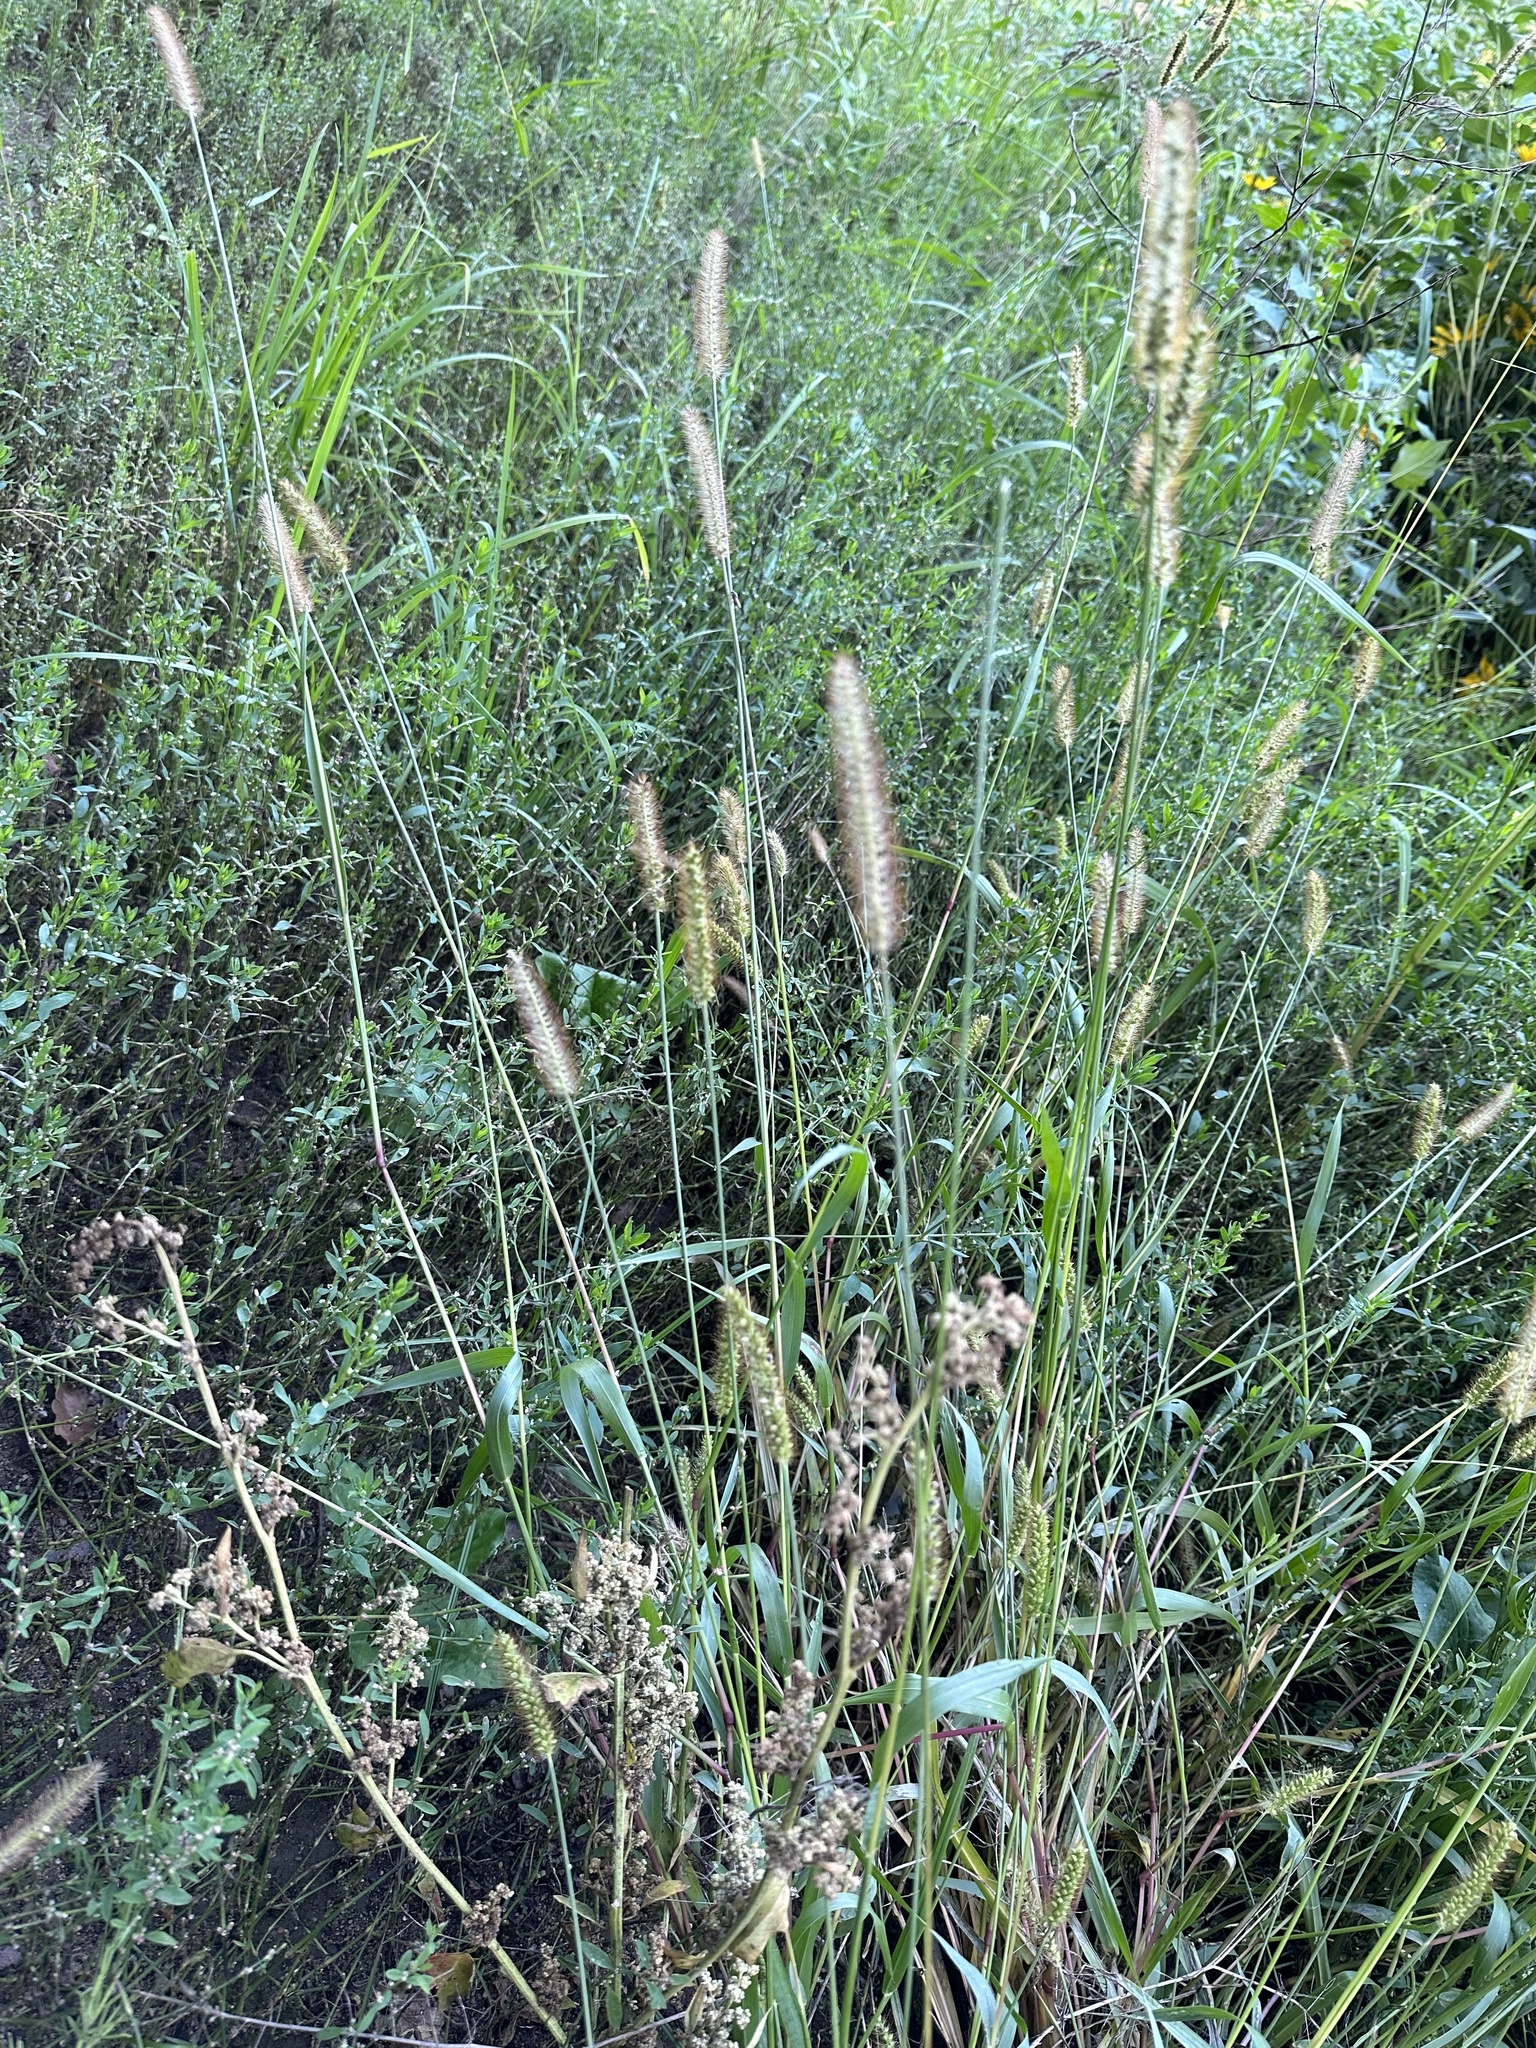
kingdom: Plantae
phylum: Tracheophyta
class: Liliopsida
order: Poales
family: Poaceae
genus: Setaria
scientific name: Setaria pumila
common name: Yellow bristle-grass
